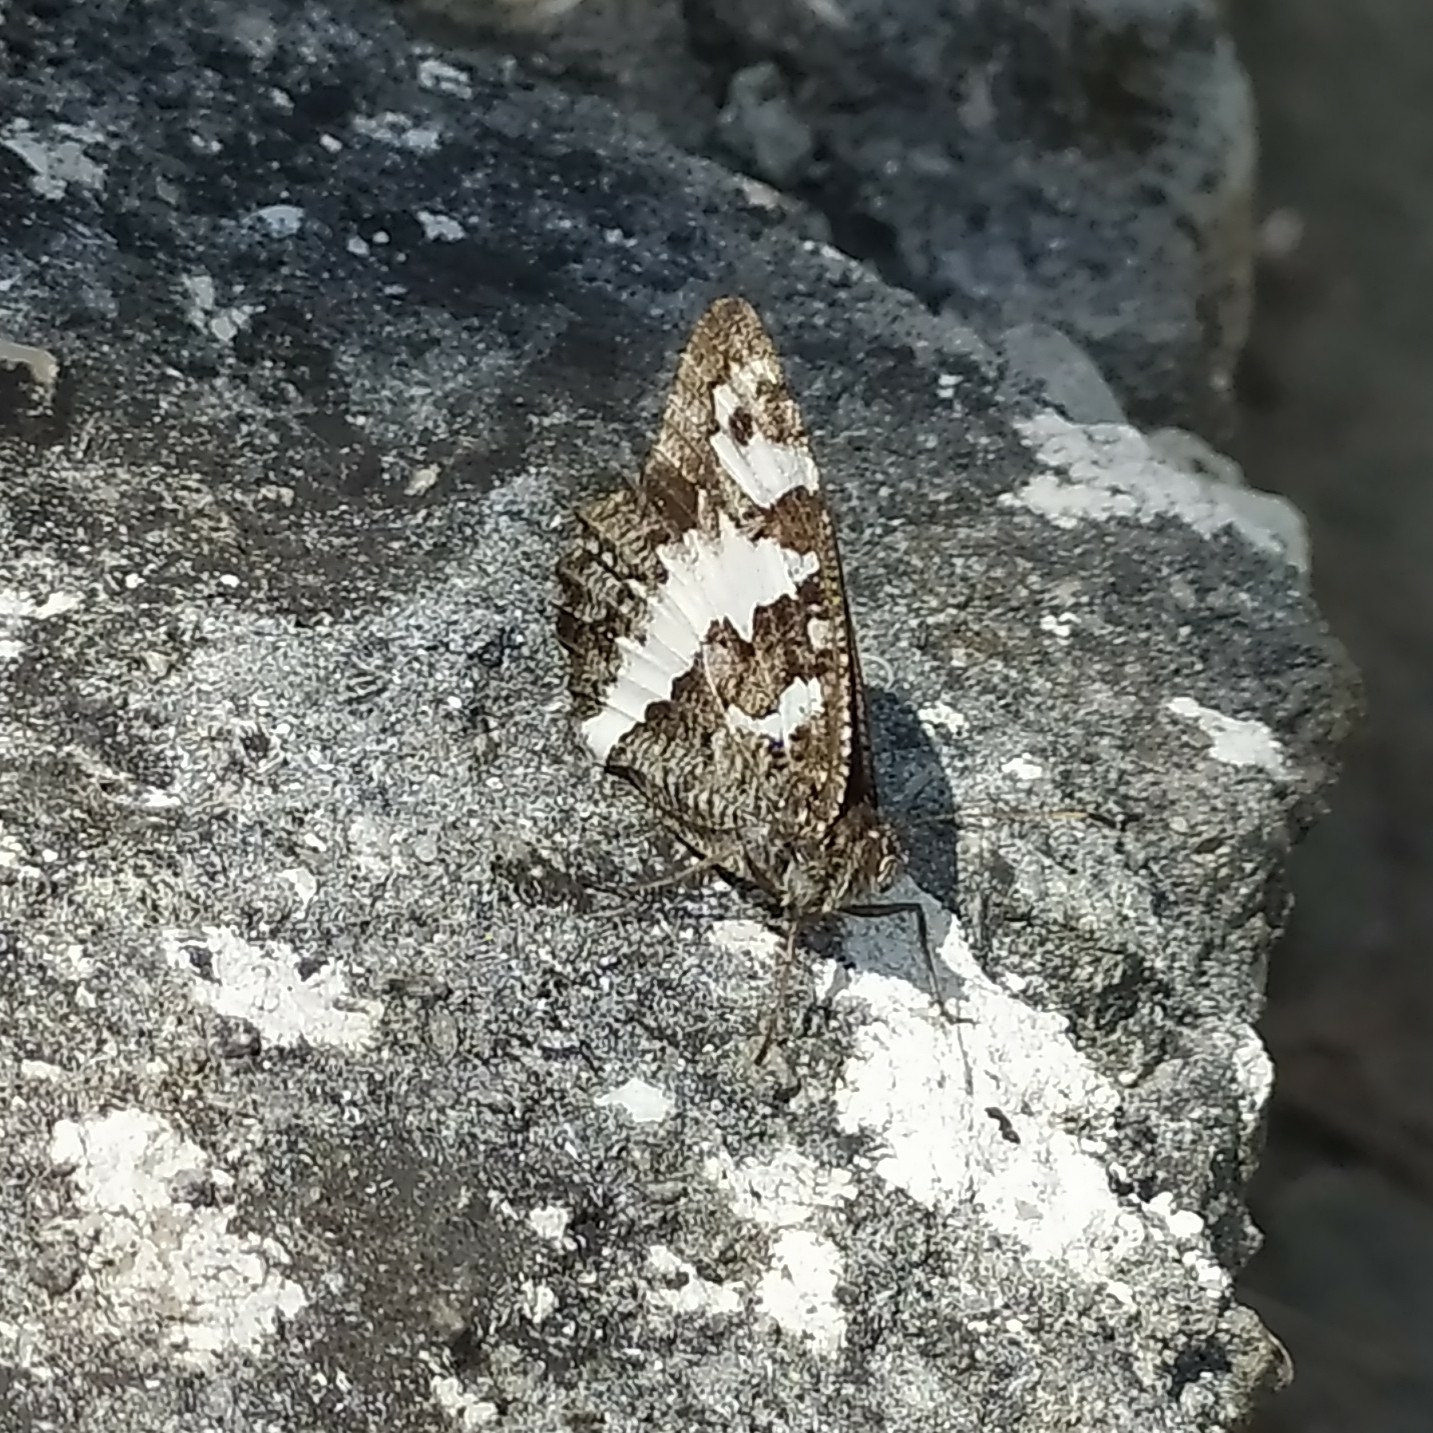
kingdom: Animalia
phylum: Arthropoda
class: Insecta
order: Lepidoptera
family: Lycaenidae
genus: Loweia
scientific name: Loweia tityrus
